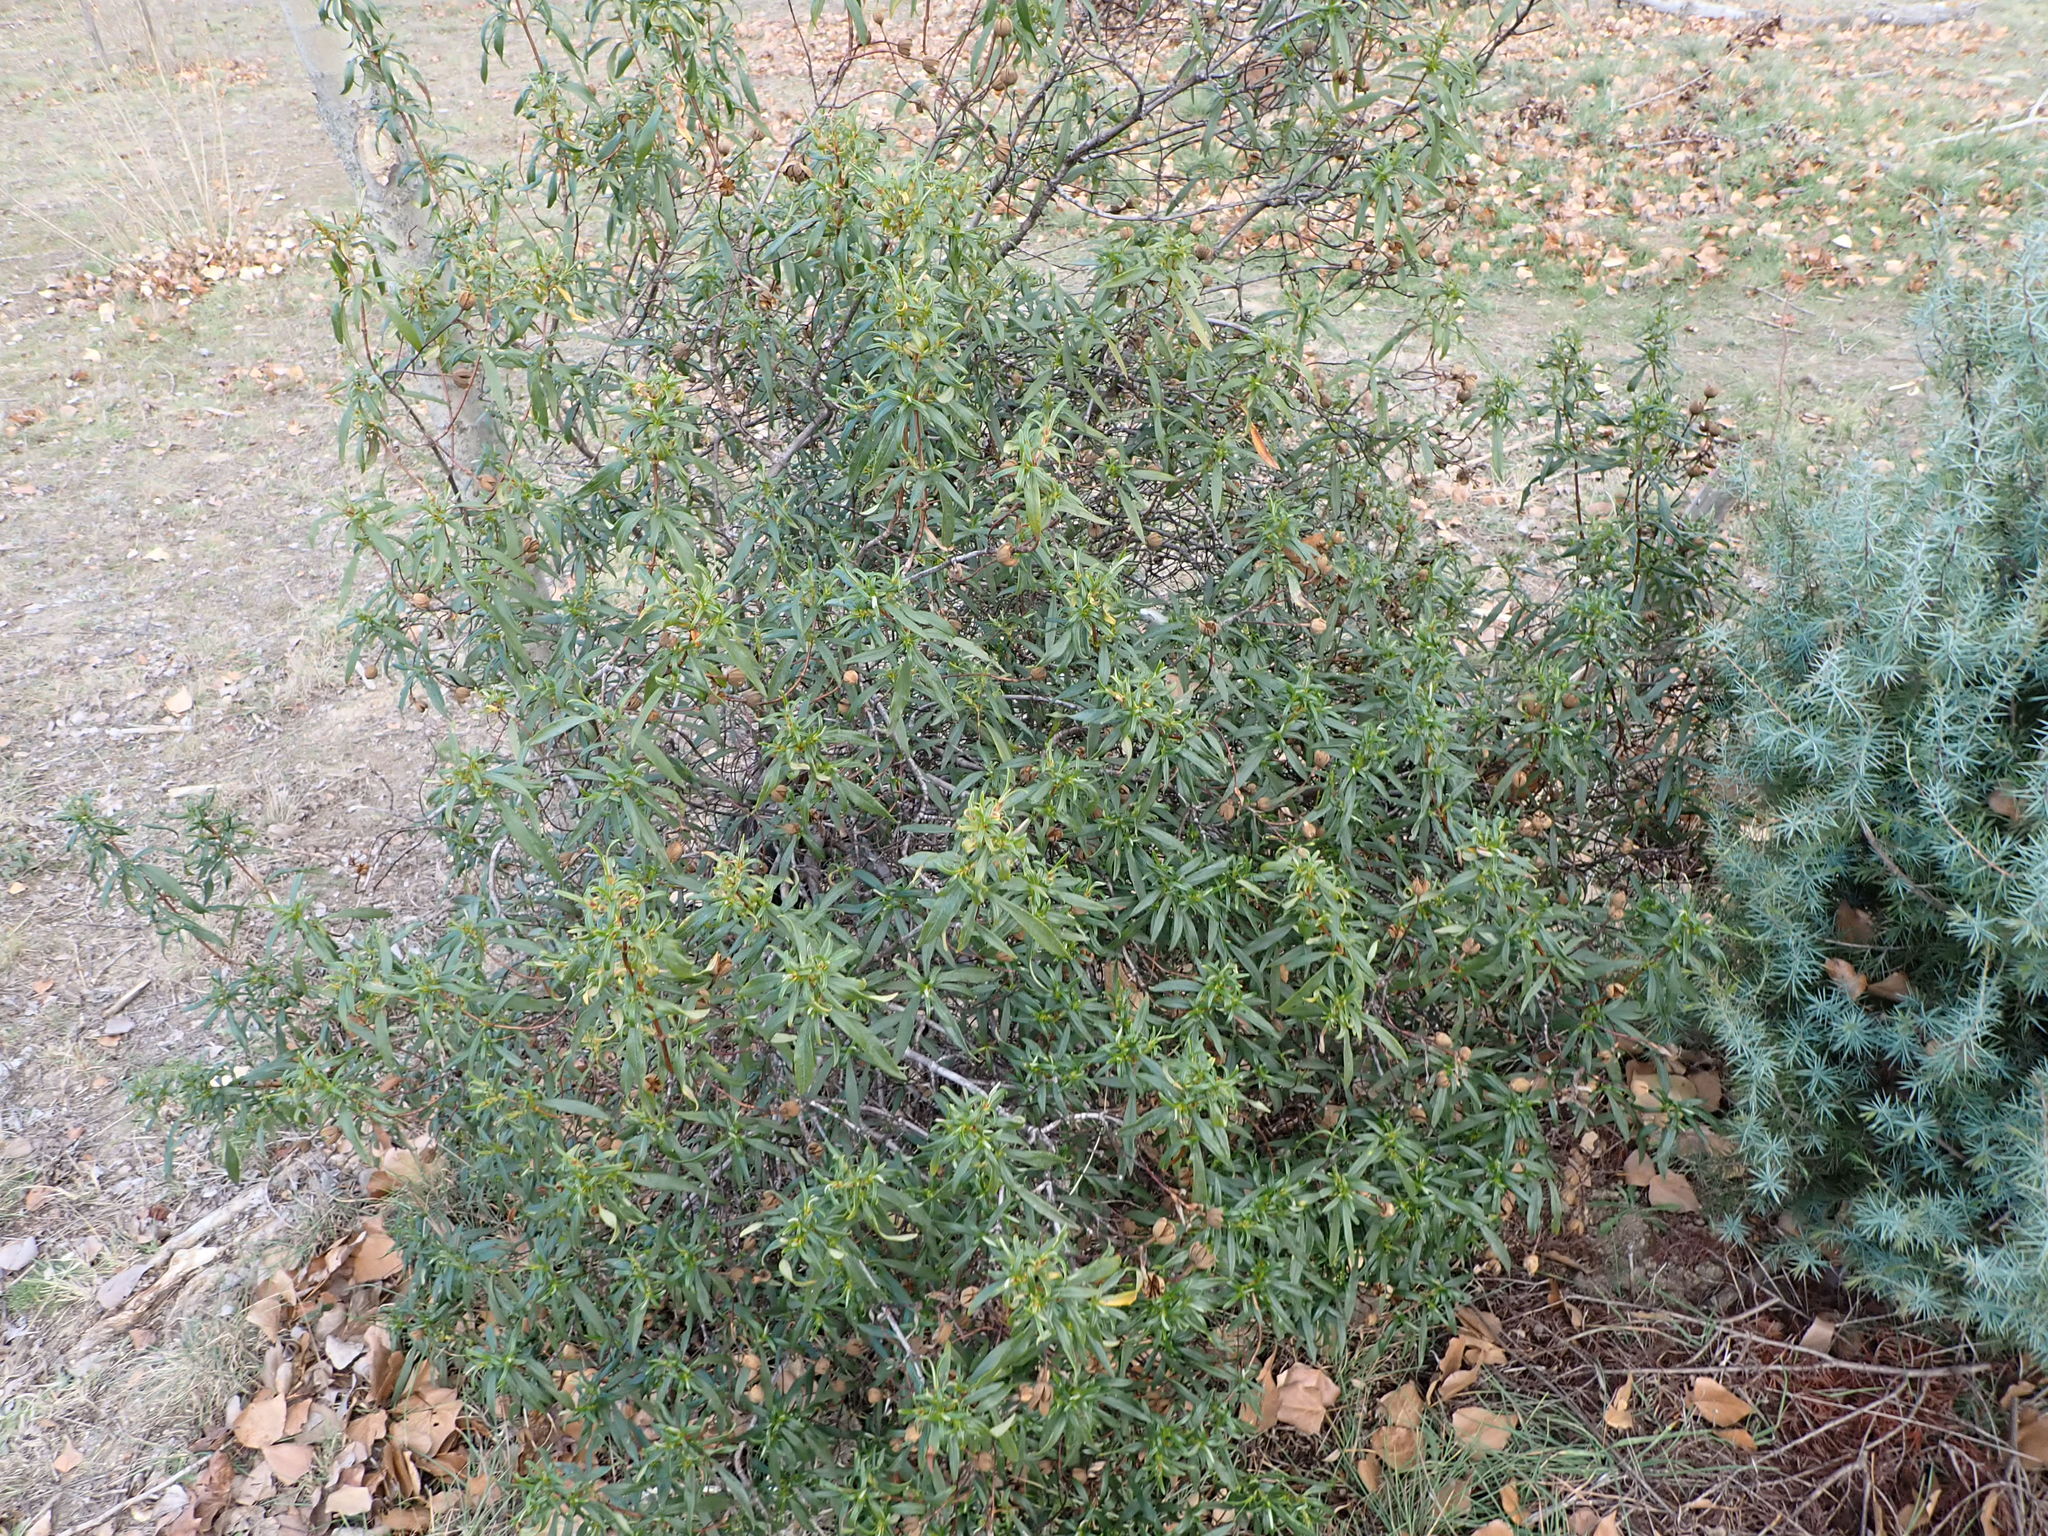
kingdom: Plantae
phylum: Tracheophyta
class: Magnoliopsida
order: Malvales
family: Cistaceae
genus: Cistus
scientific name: Cistus ladanifer
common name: Common gum cistus
